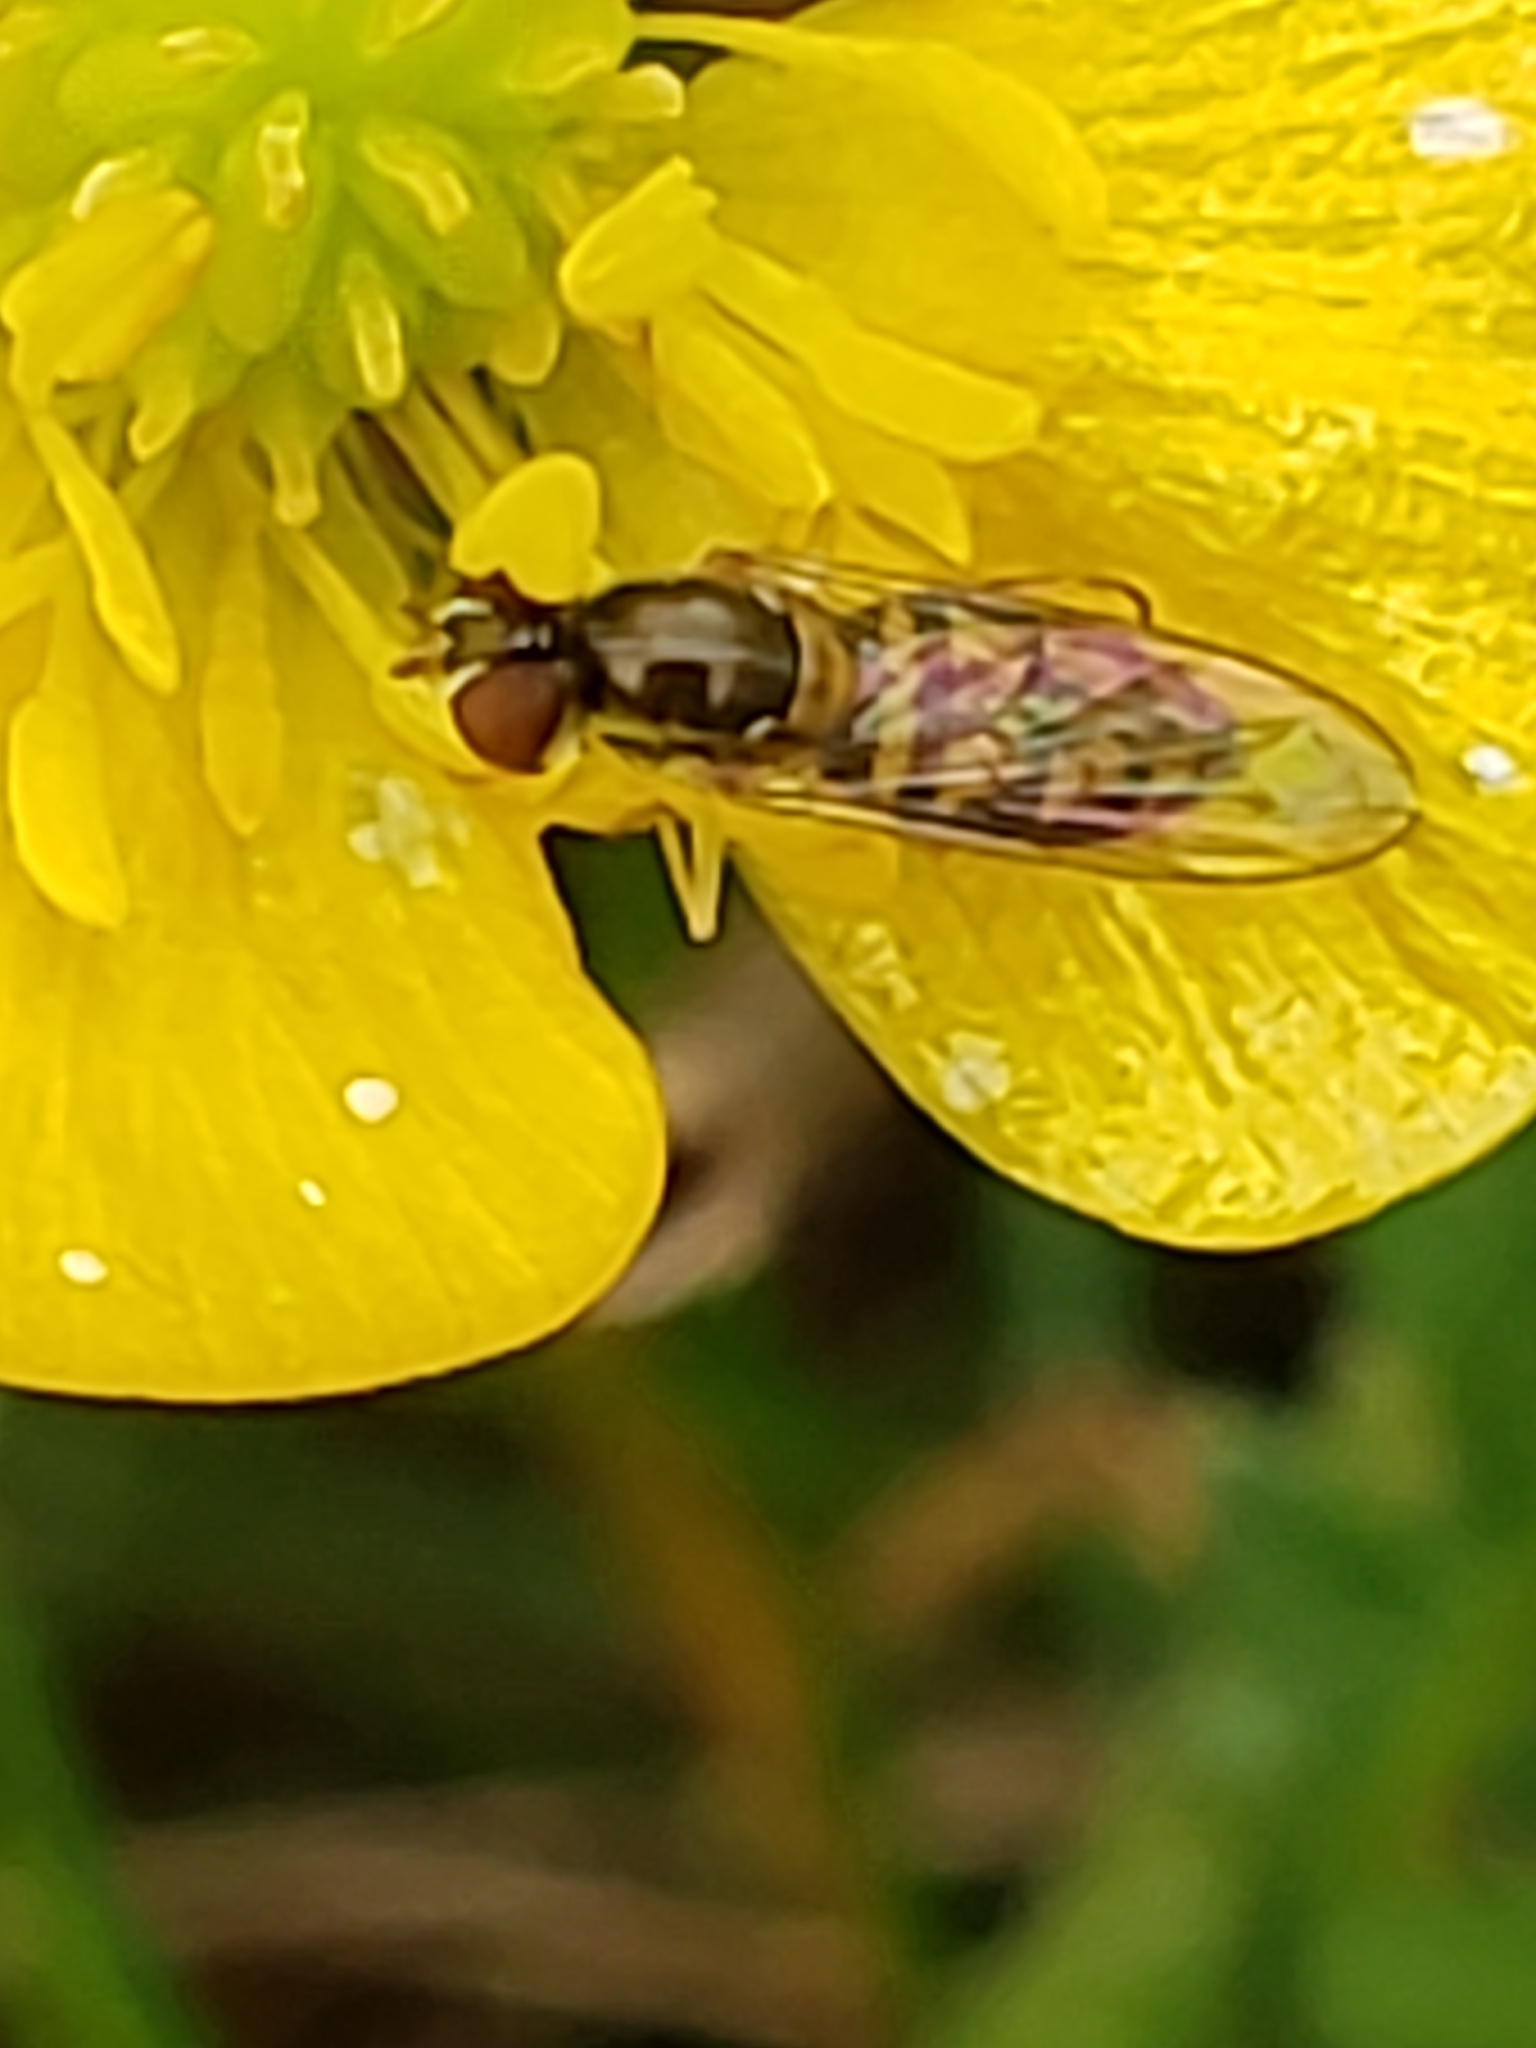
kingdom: Animalia
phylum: Arthropoda
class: Insecta
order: Diptera
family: Syrphidae
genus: Toxomerus
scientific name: Toxomerus marginatus
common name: Syrphid fly
